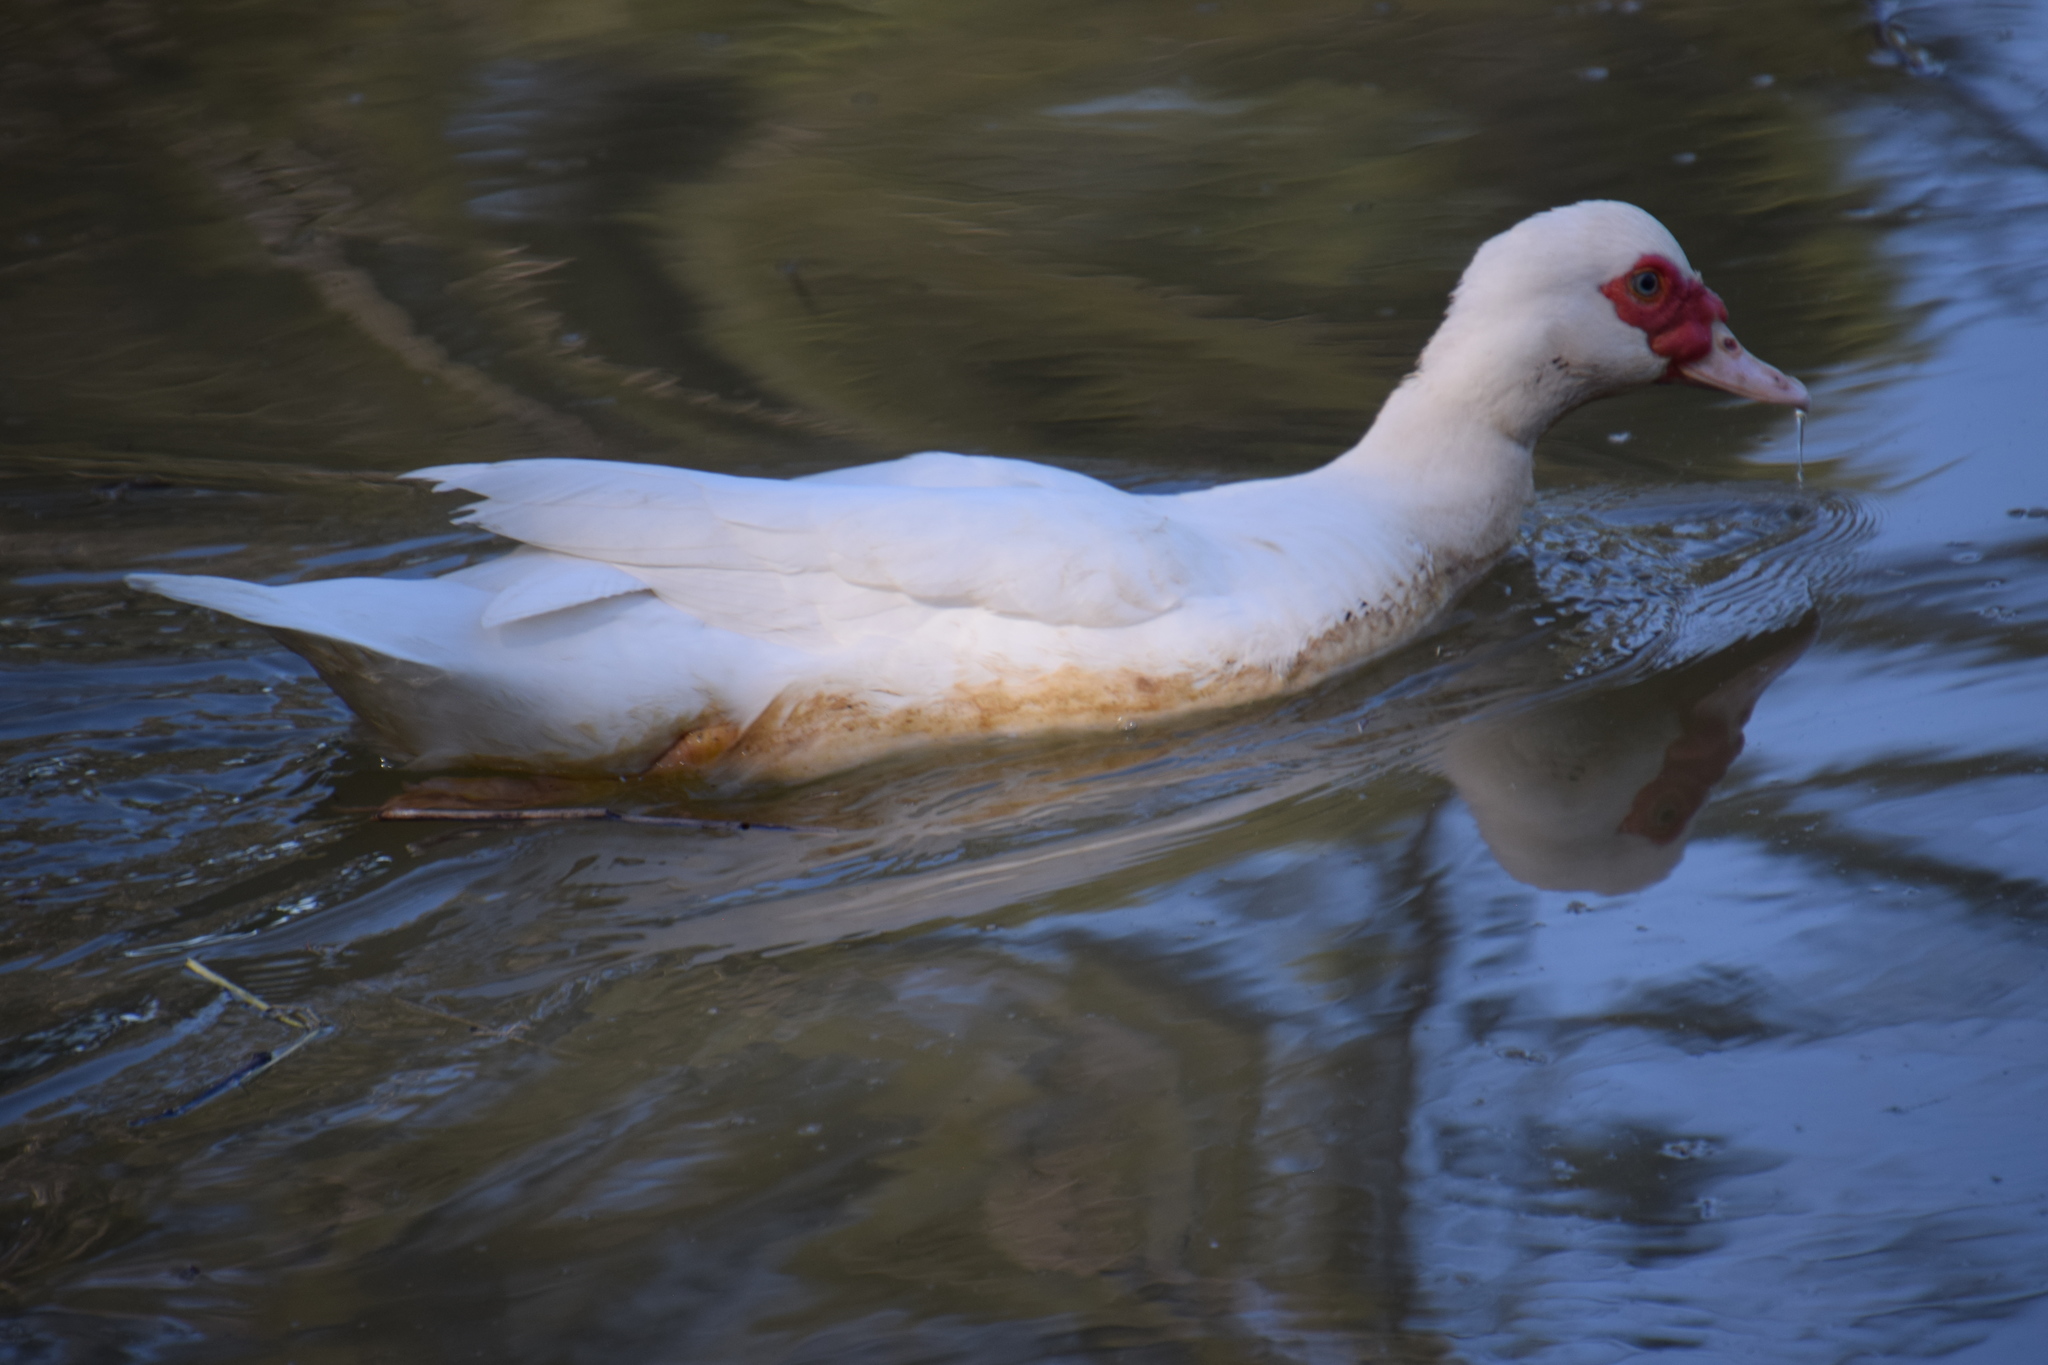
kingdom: Animalia
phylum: Chordata
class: Aves
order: Anseriformes
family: Anatidae
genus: Cairina
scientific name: Cairina moschata
